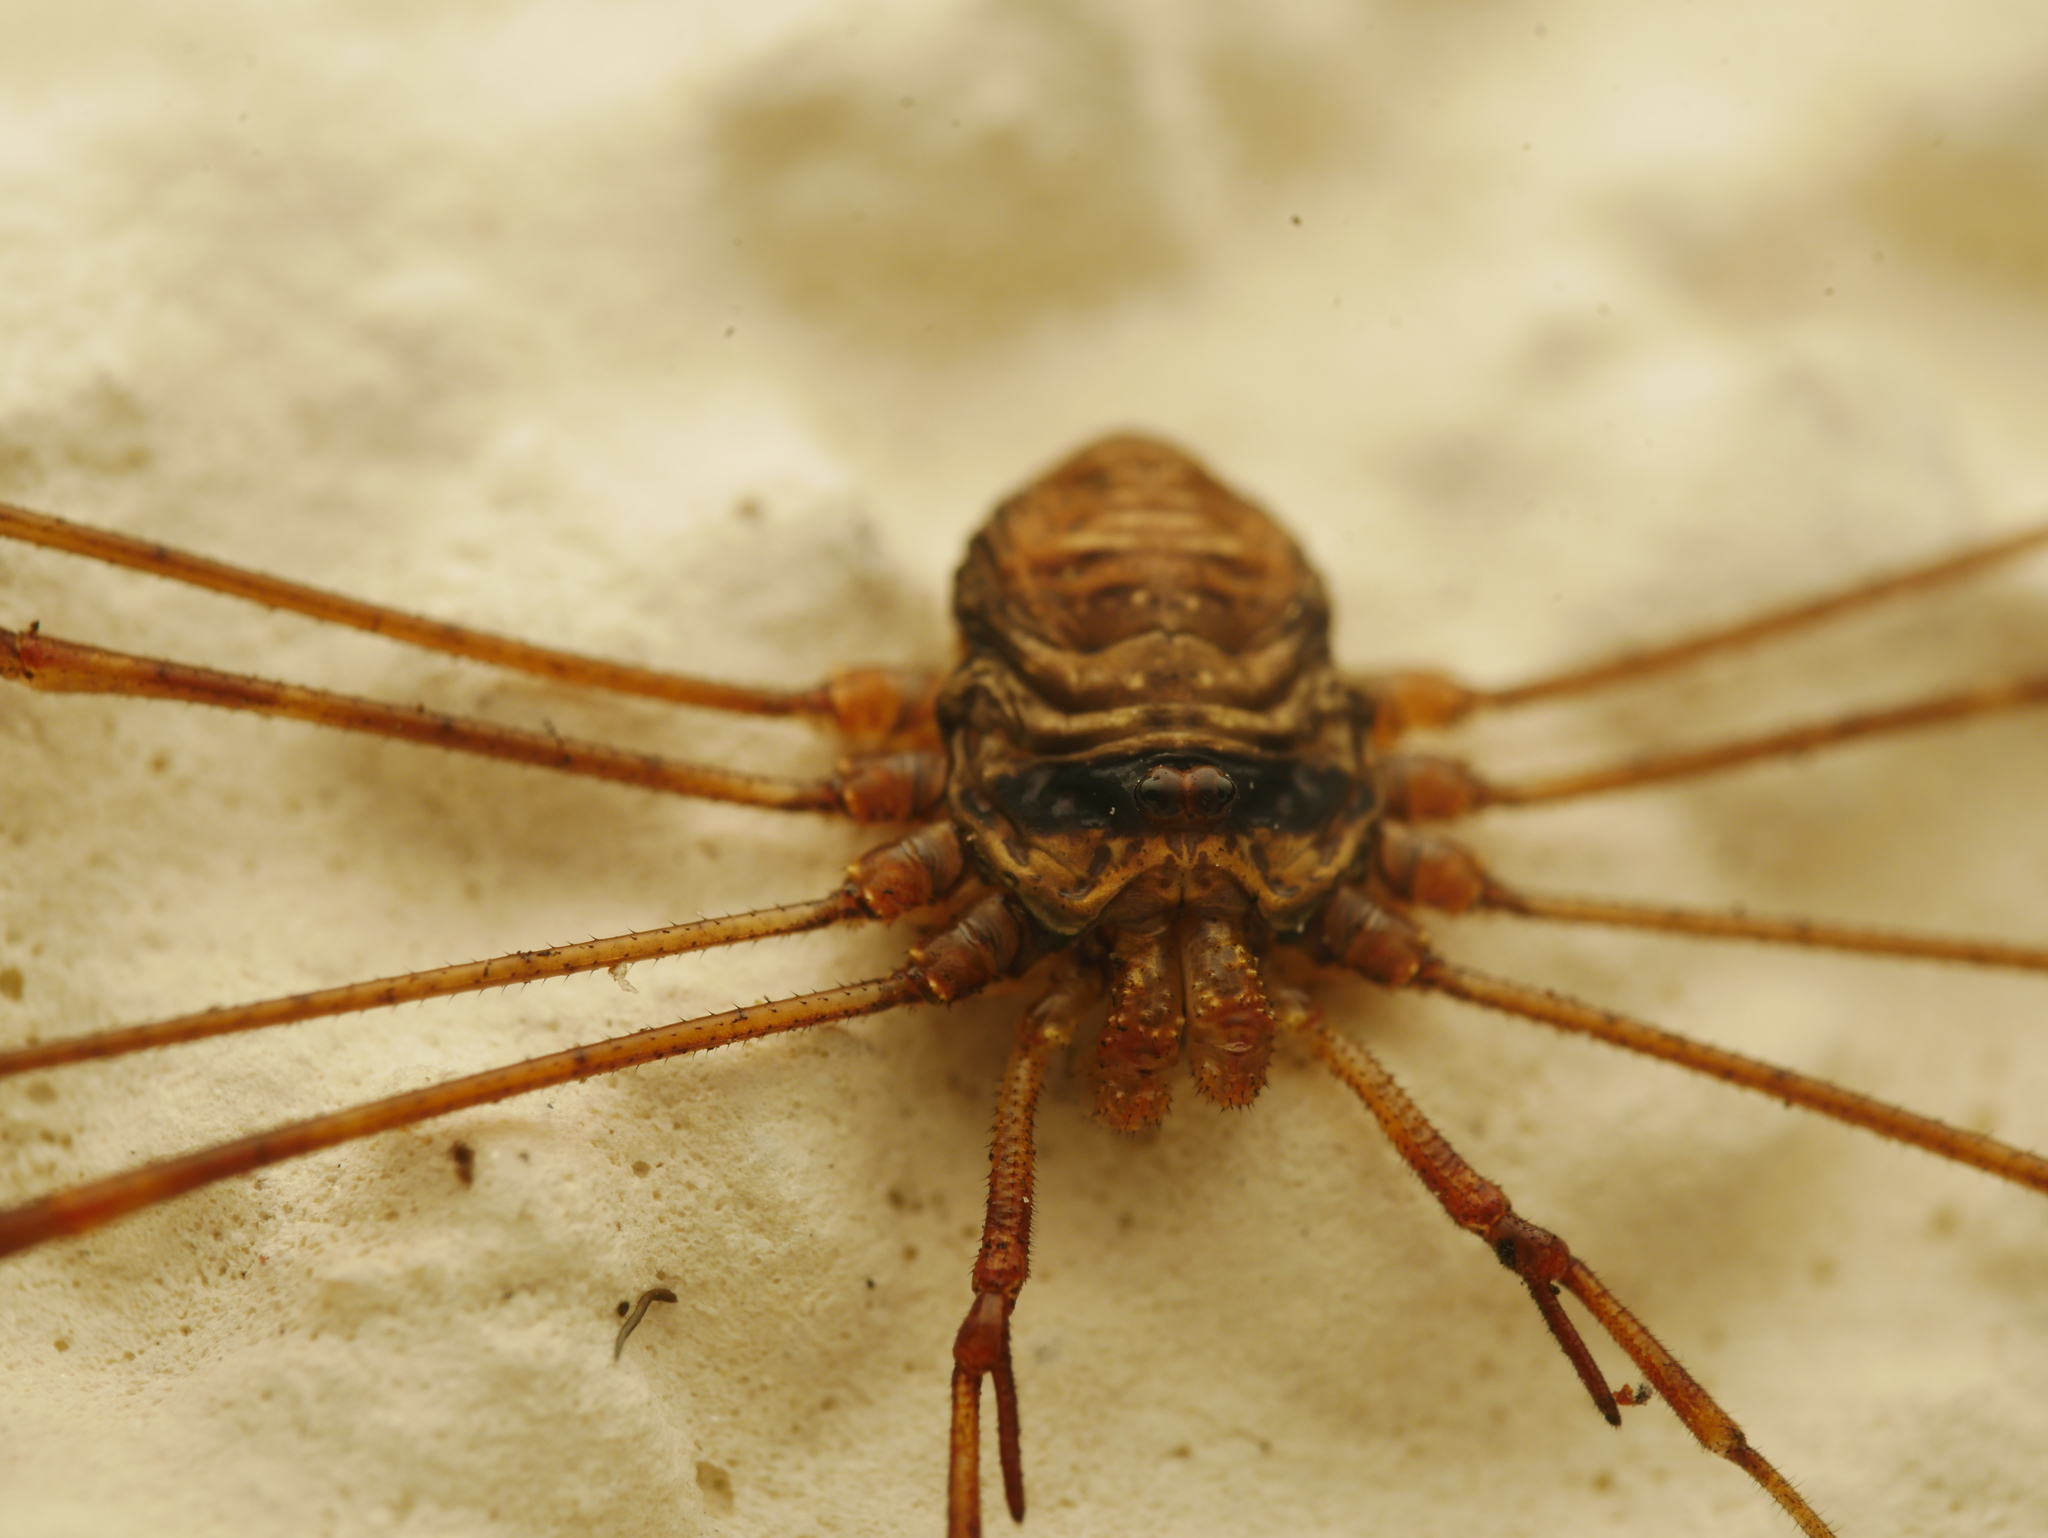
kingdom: Animalia
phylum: Arthropoda
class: Arachnida
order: Opiliones
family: Phalangiidae
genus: Dicranopalpus
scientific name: Dicranopalpus ramosus
